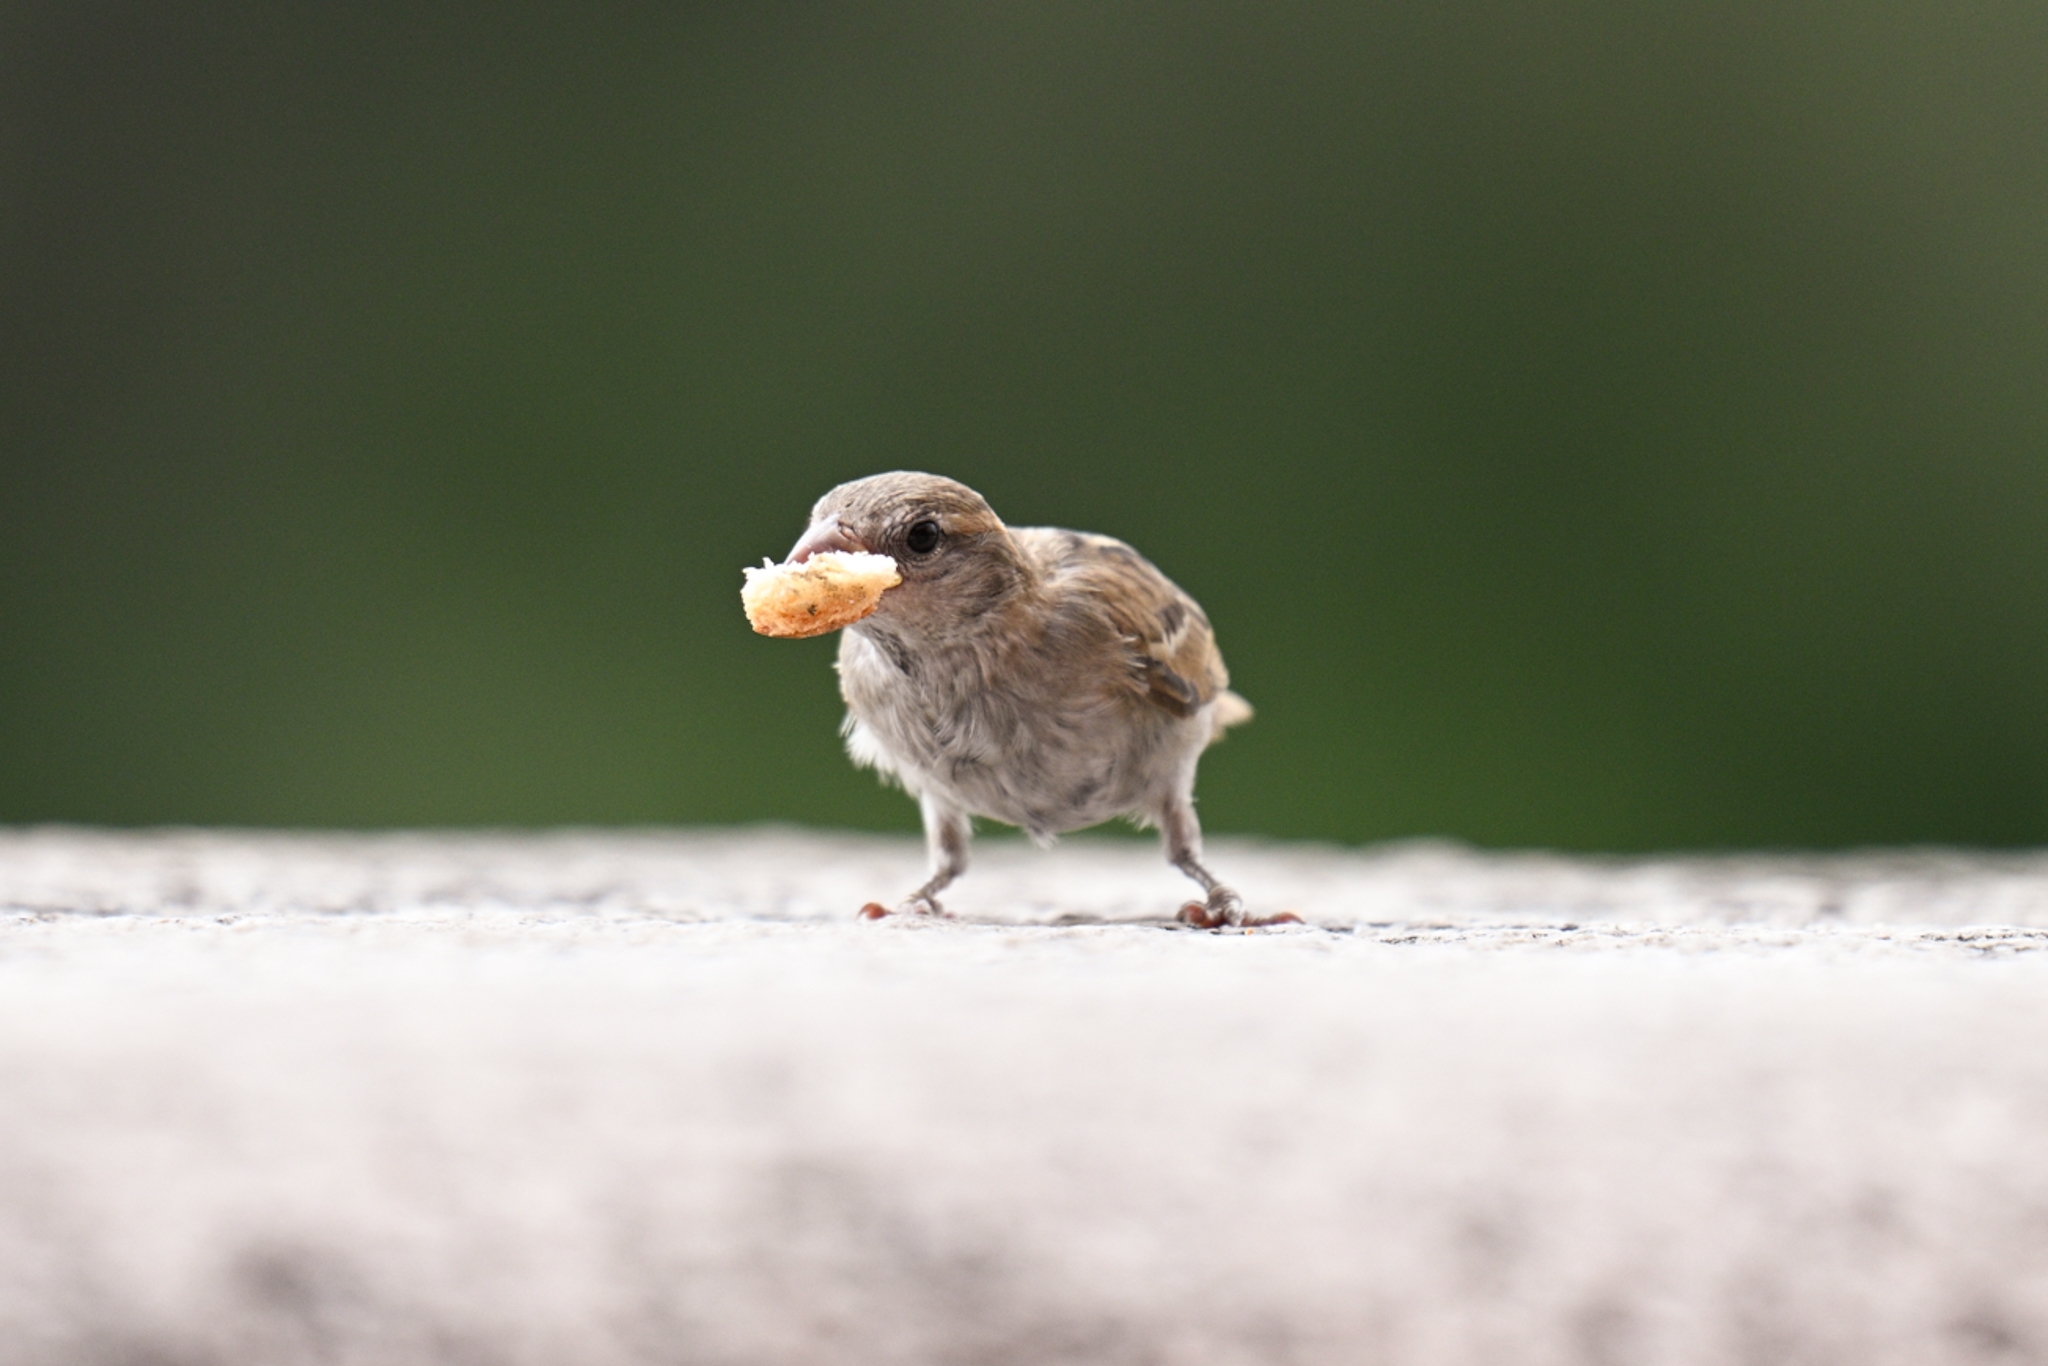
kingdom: Animalia
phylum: Chordata
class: Aves
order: Passeriformes
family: Passeridae
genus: Passer
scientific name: Passer domesticus
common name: House sparrow
